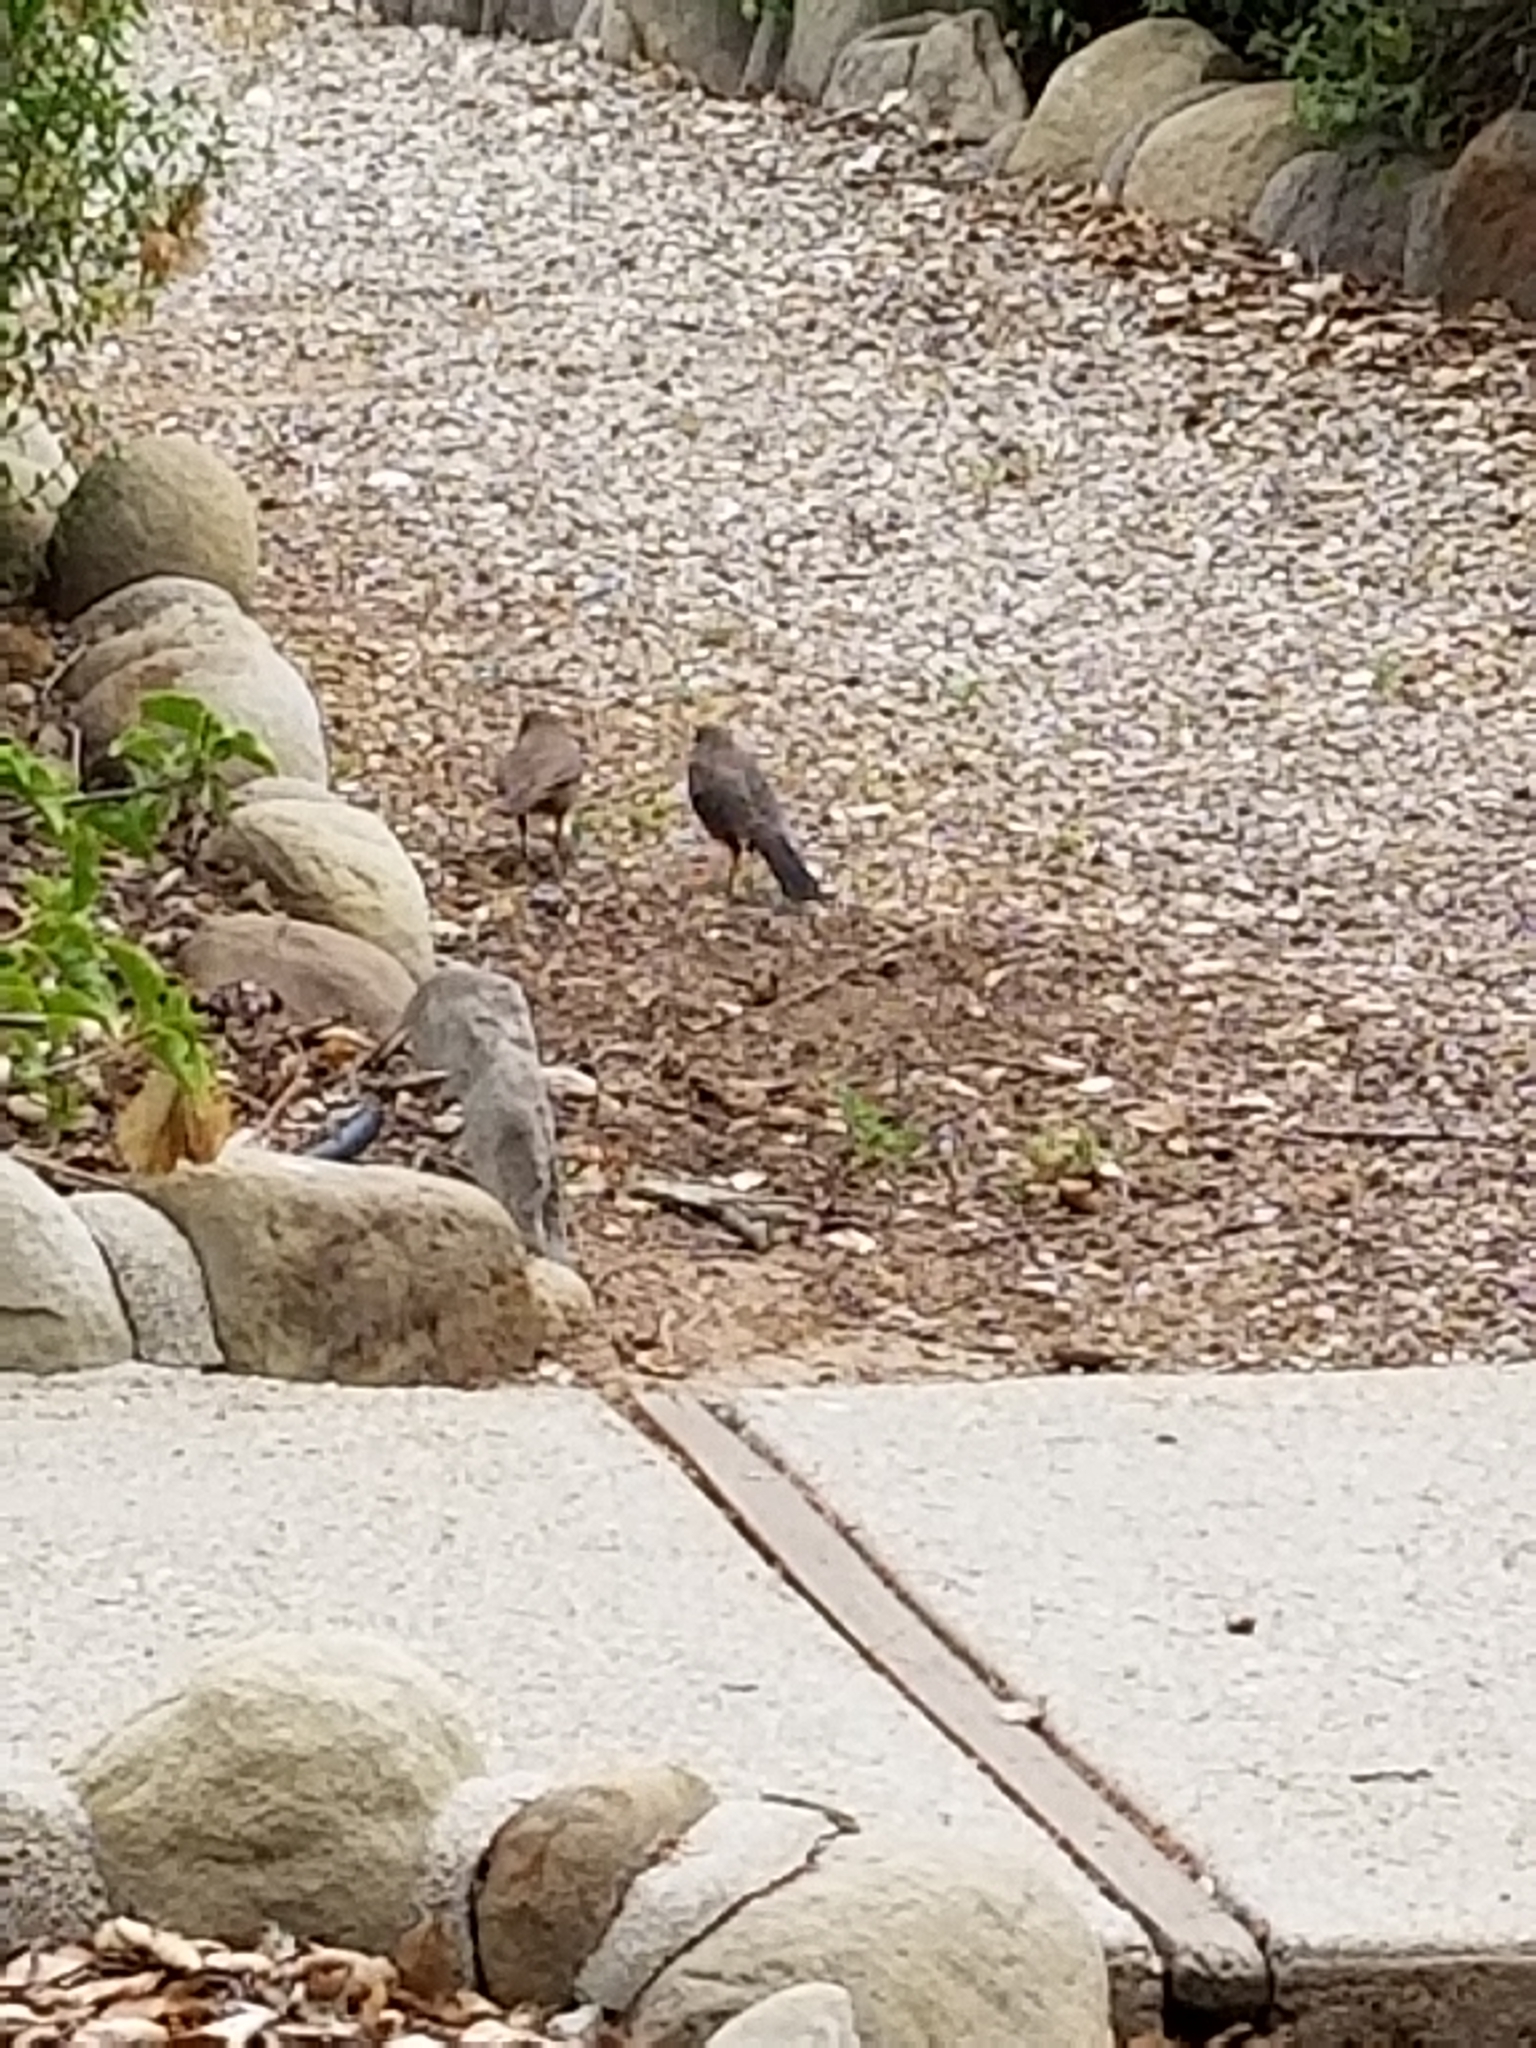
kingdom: Animalia
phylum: Chordata
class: Aves
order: Passeriformes
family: Passerellidae
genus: Melozone
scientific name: Melozone crissalis
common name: California towhee
